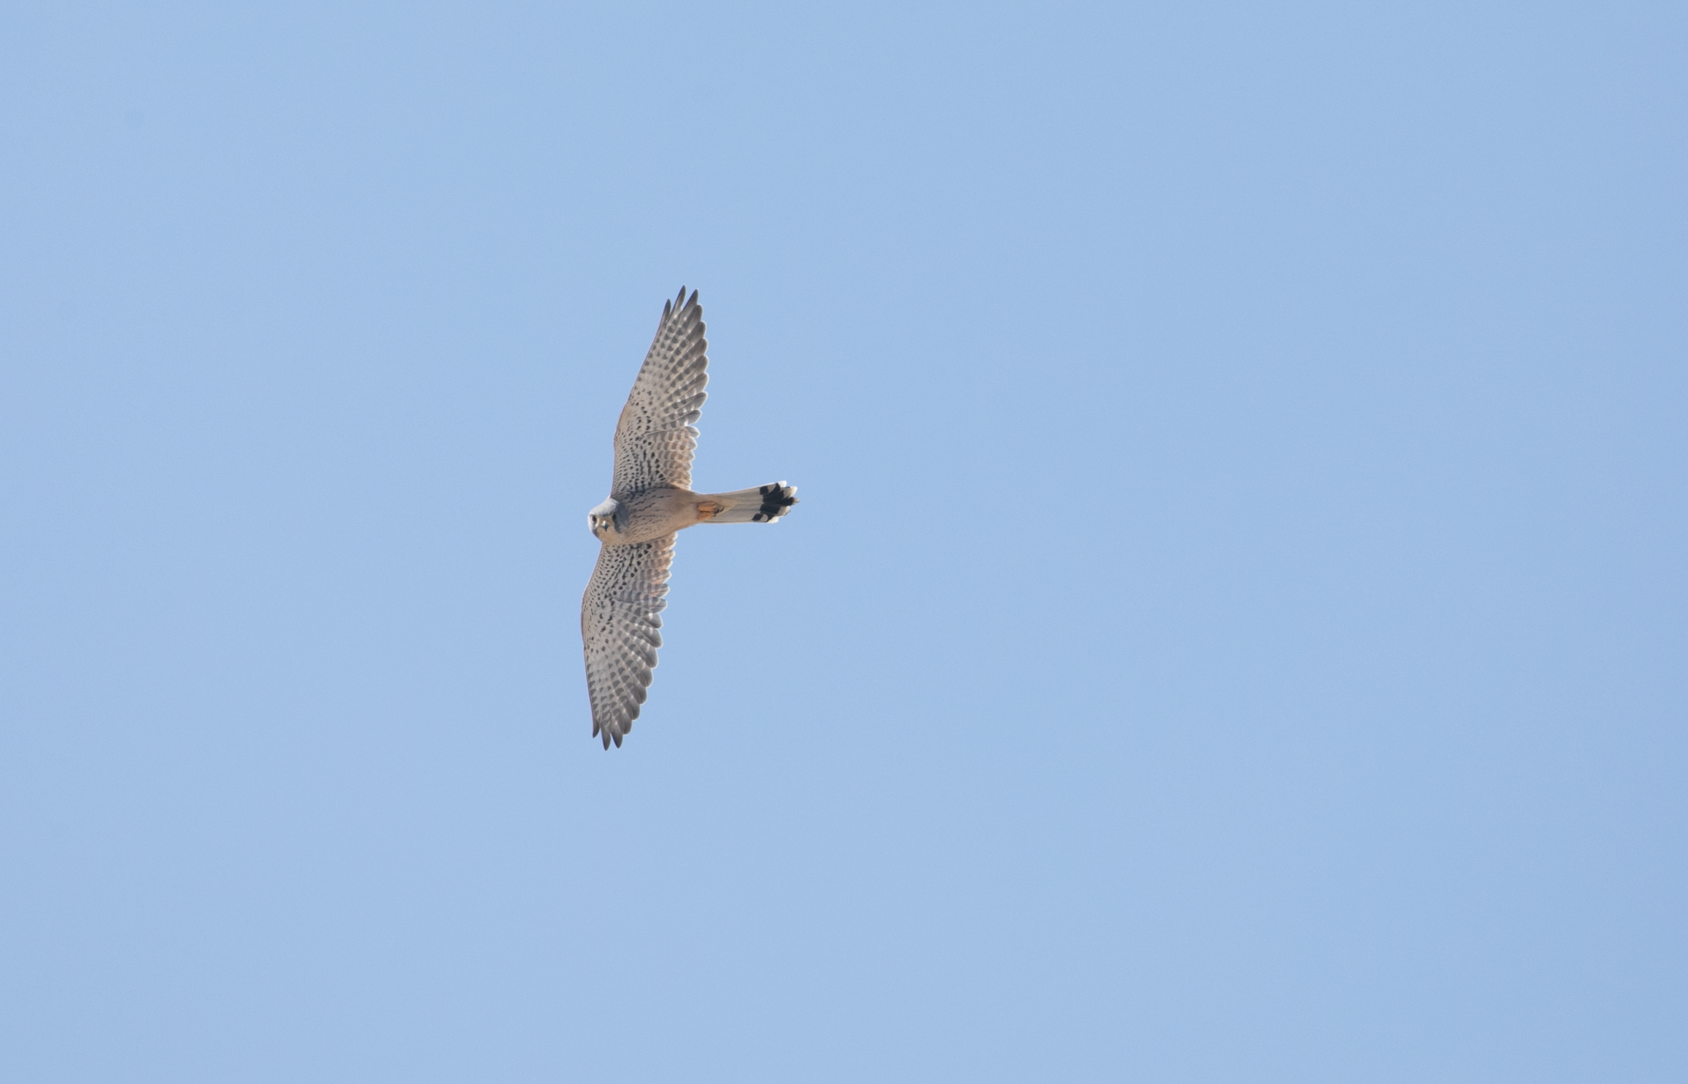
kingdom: Animalia
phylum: Chordata
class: Aves
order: Falconiformes
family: Falconidae
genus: Falco
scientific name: Falco tinnunculus
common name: Common kestrel
